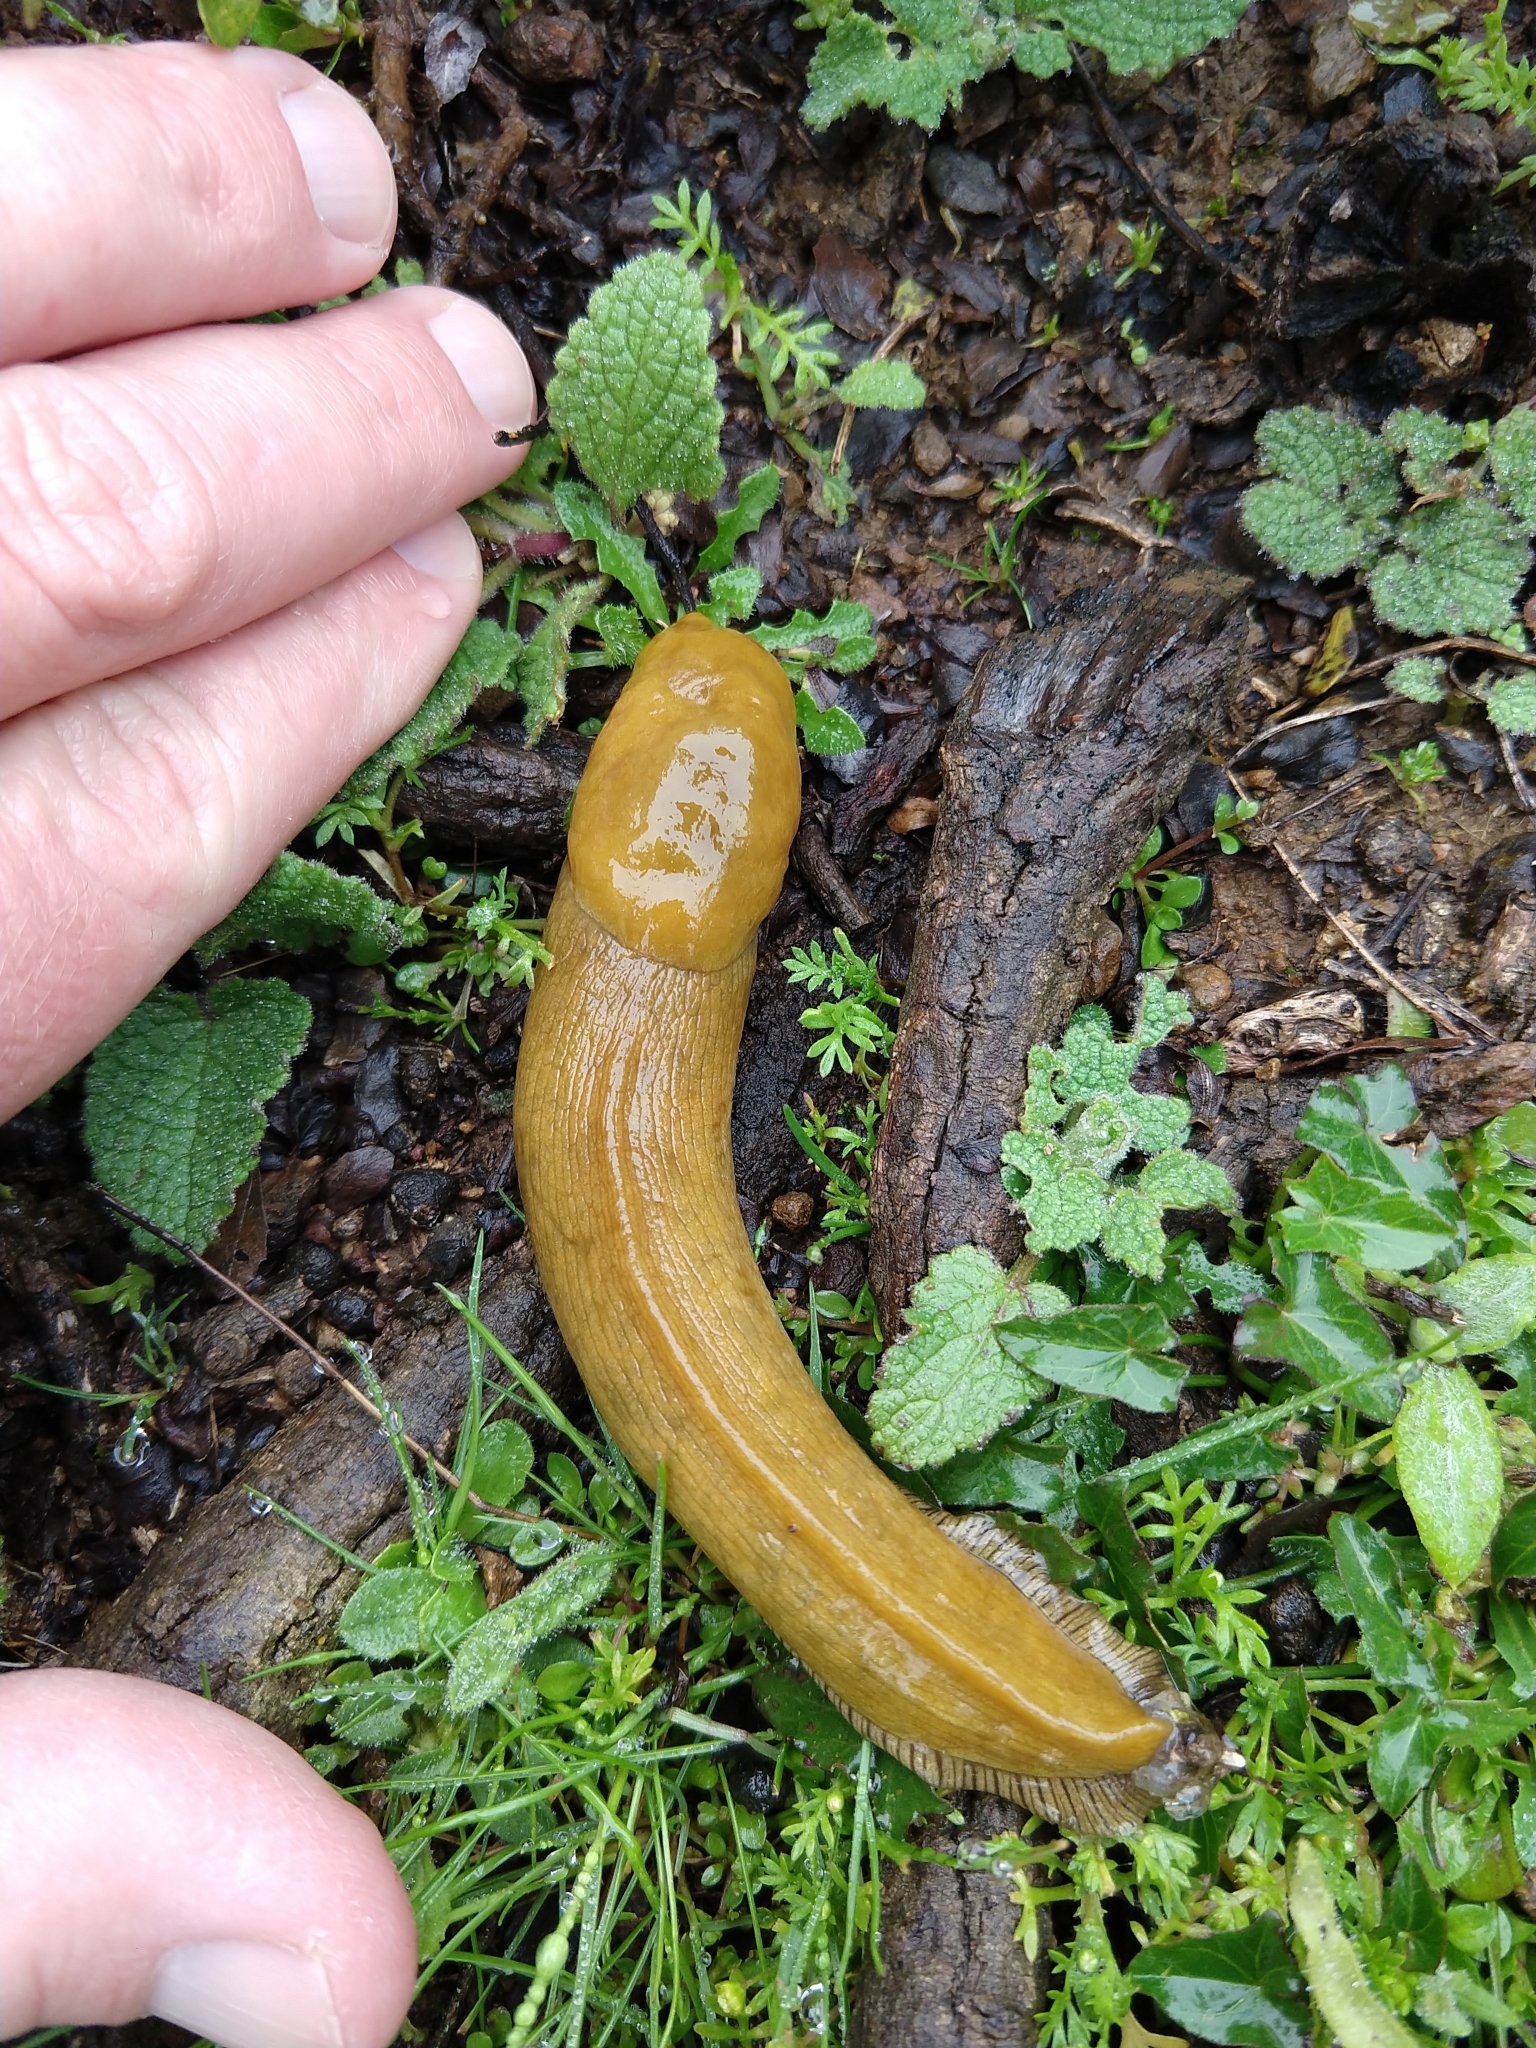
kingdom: Animalia
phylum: Mollusca
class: Gastropoda
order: Stylommatophora
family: Ariolimacidae
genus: Ariolimax
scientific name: Ariolimax brachyphallus
